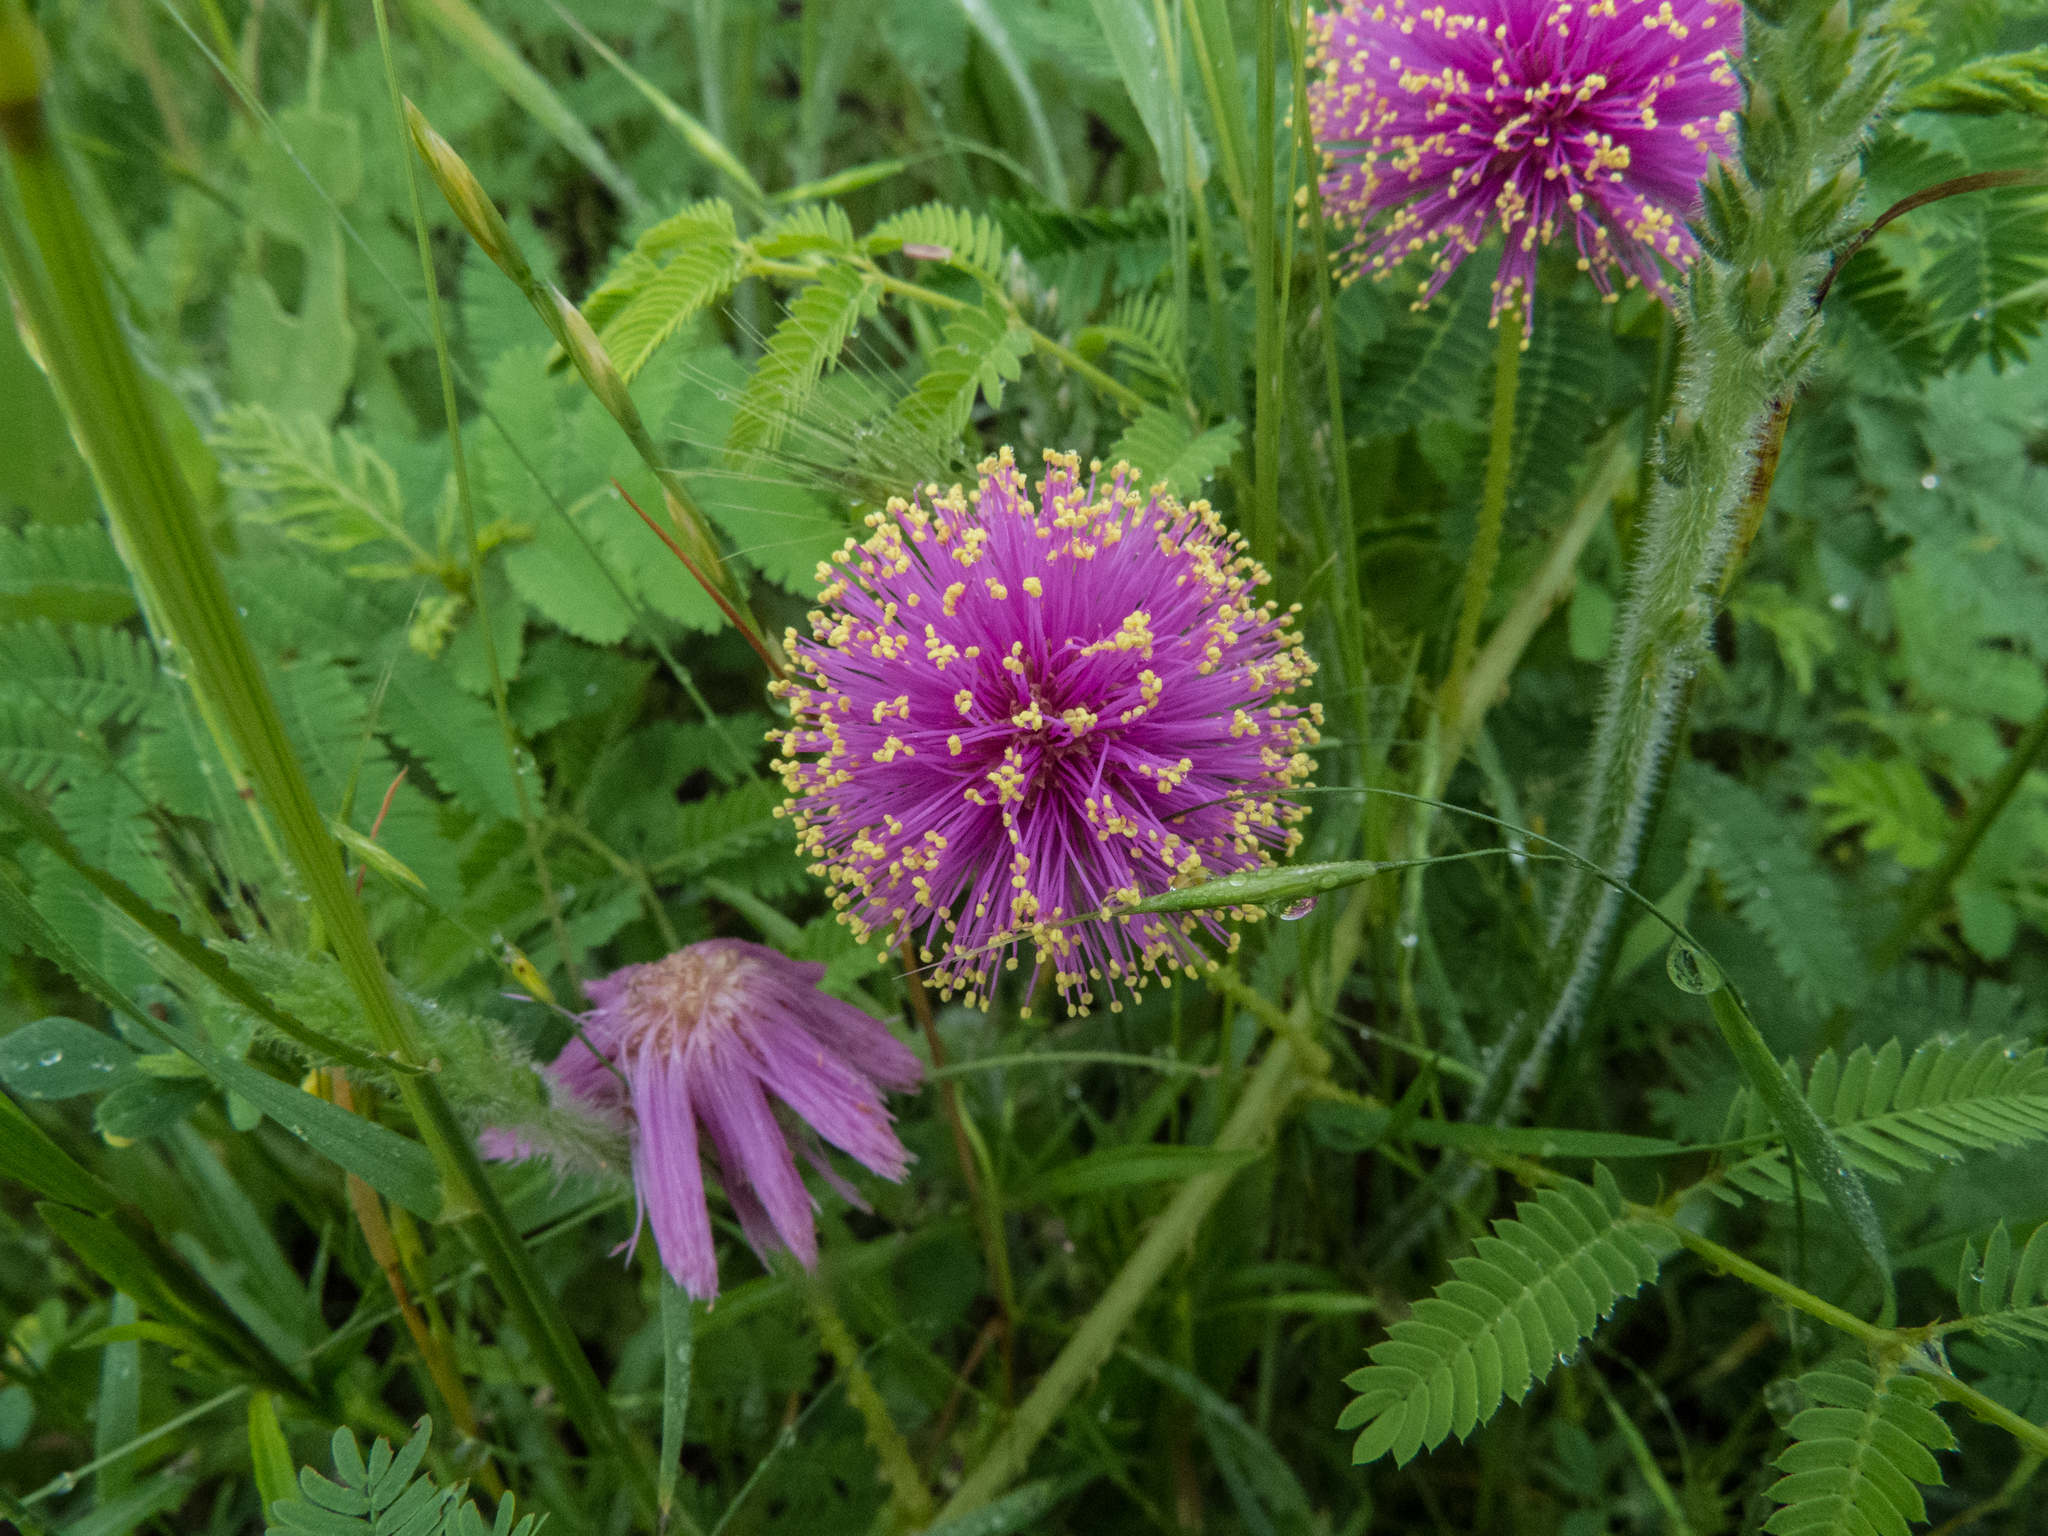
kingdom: Plantae
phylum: Tracheophyta
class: Magnoliopsida
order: Fabales
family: Fabaceae
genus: Mimosa
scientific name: Mimosa quadrivalvis
